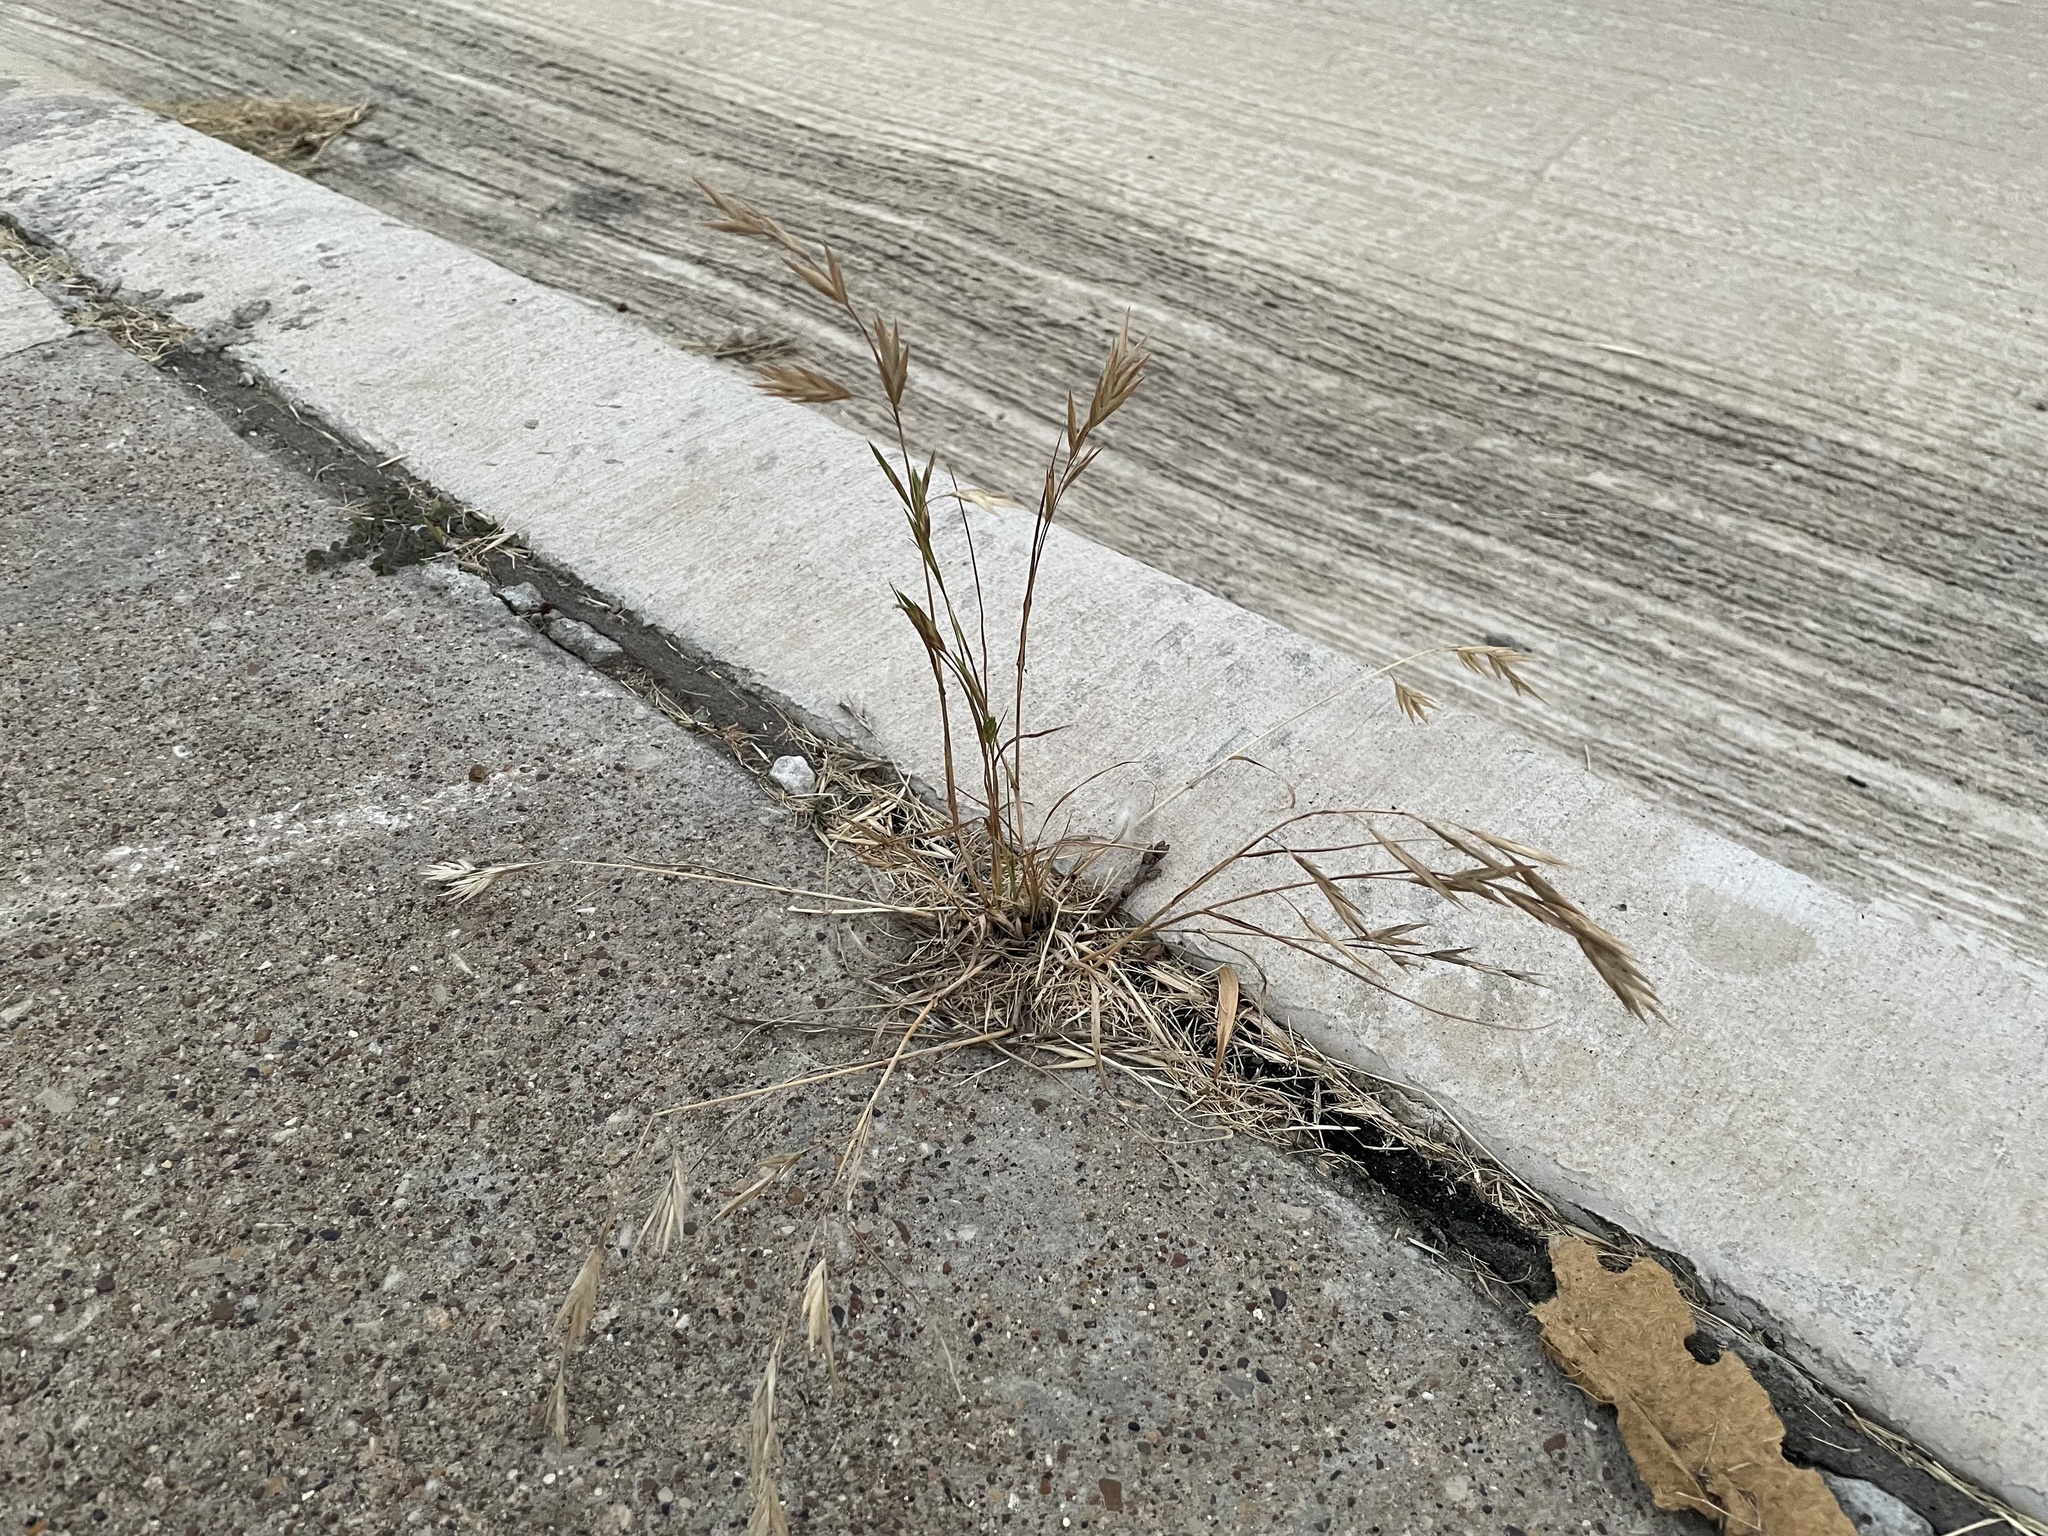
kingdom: Plantae
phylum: Tracheophyta
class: Liliopsida
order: Poales
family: Poaceae
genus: Bromus
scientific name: Bromus catharticus
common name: Rescuegrass
